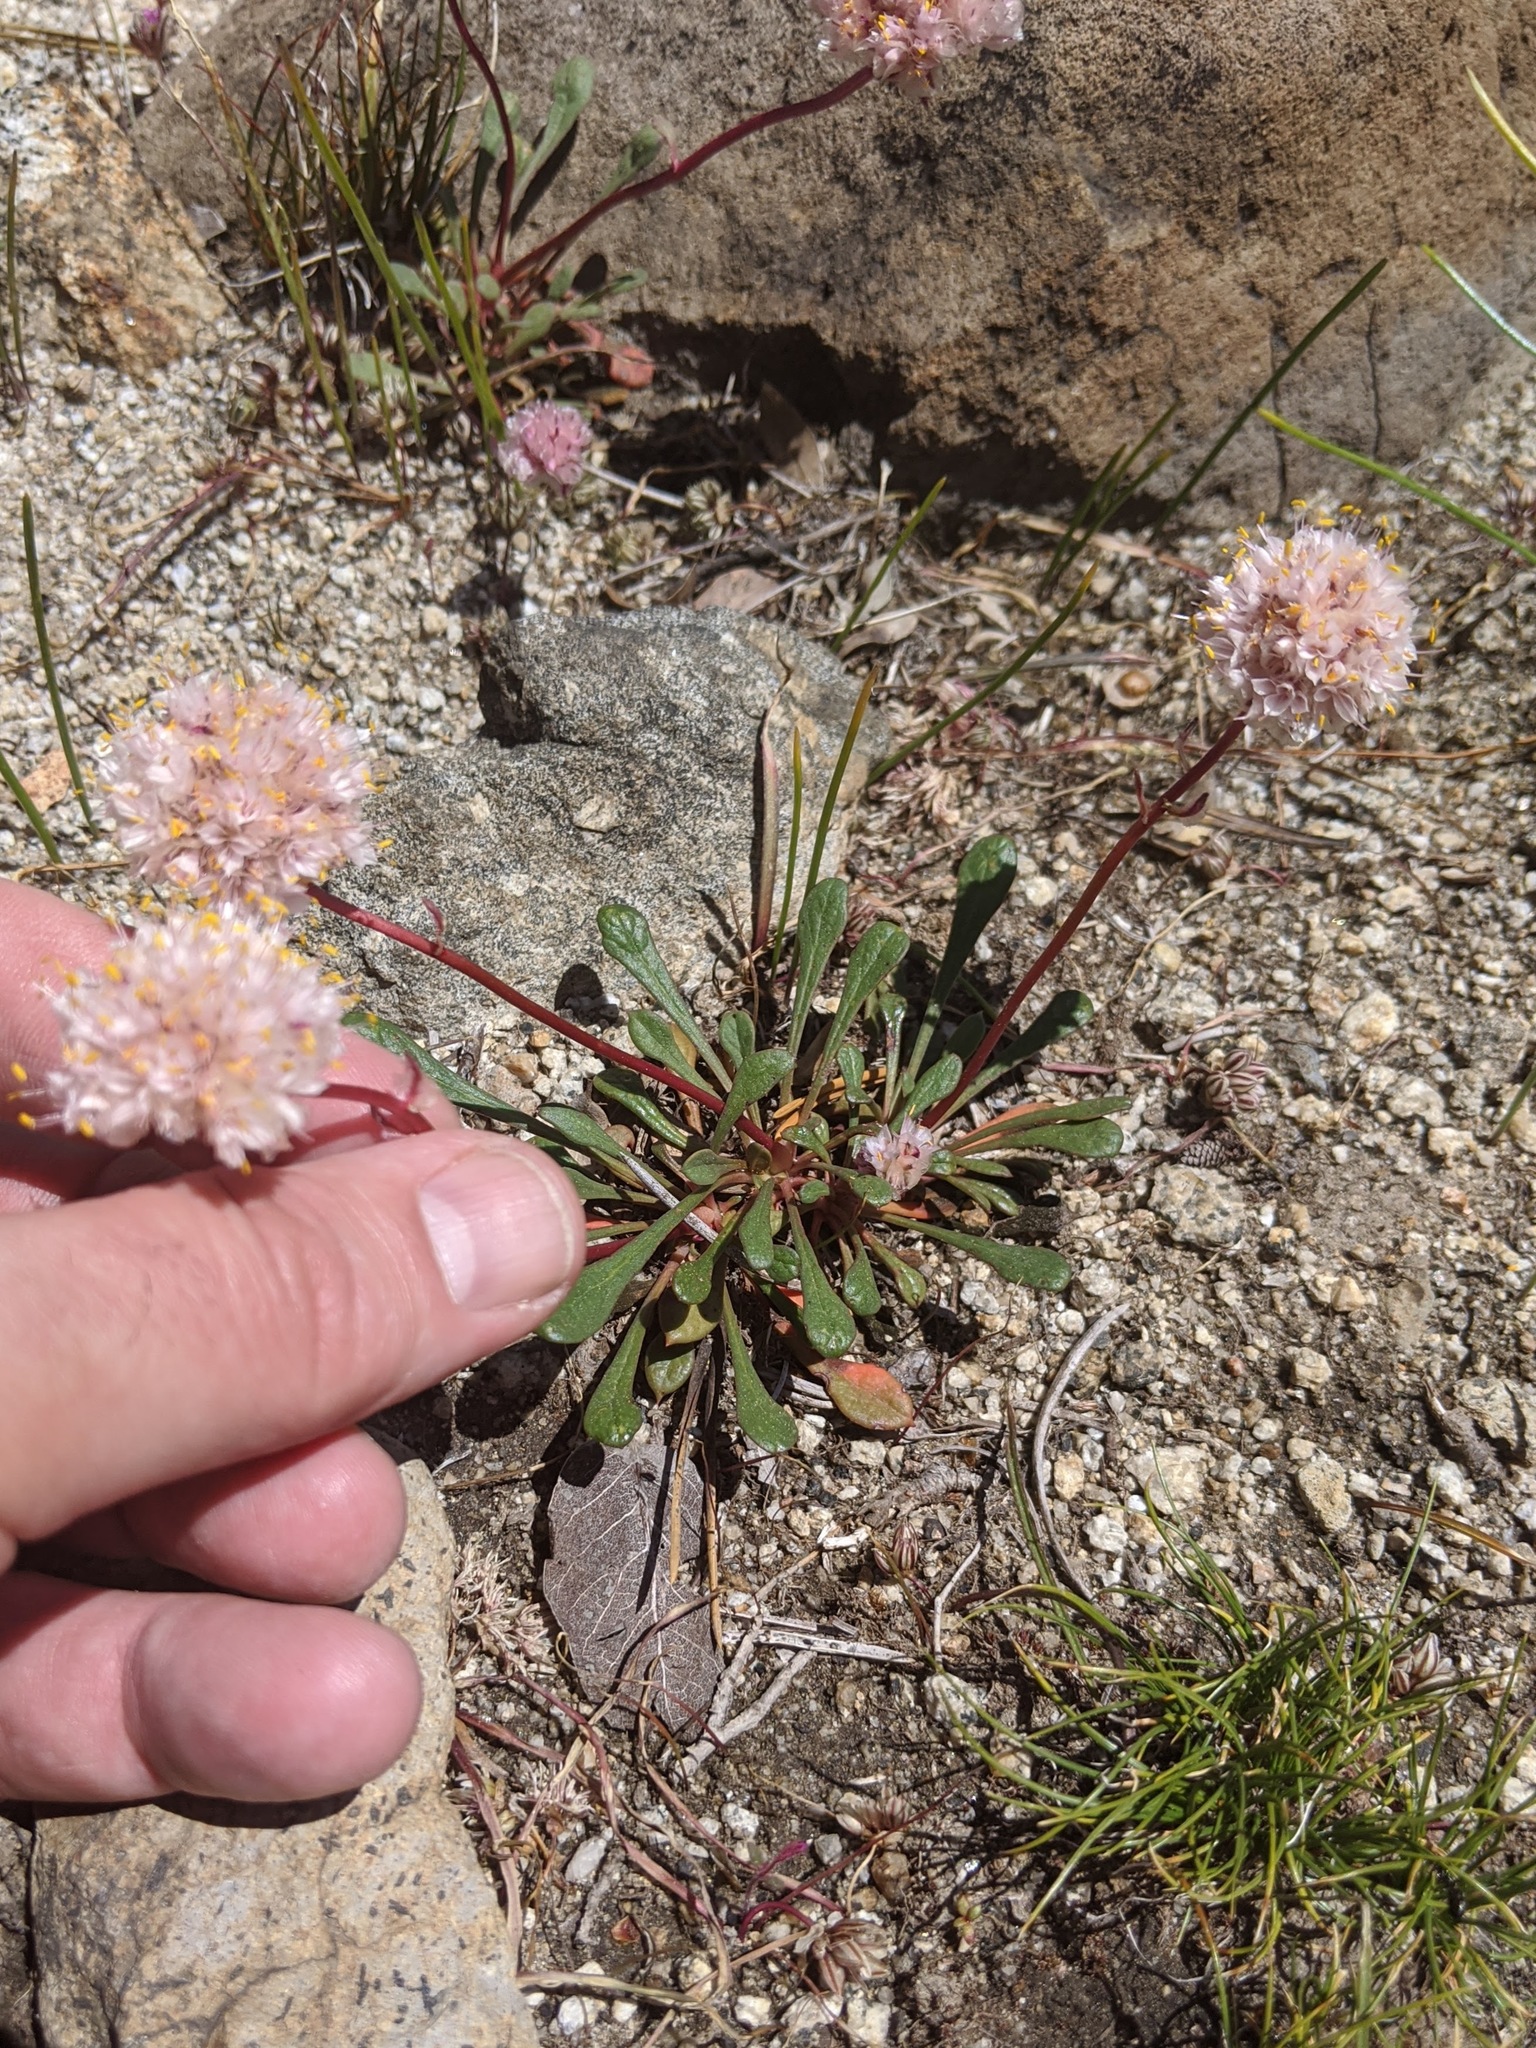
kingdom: Plantae
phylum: Tracheophyta
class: Magnoliopsida
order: Caryophyllales
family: Montiaceae
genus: Calyptridium
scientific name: Calyptridium monospermum
